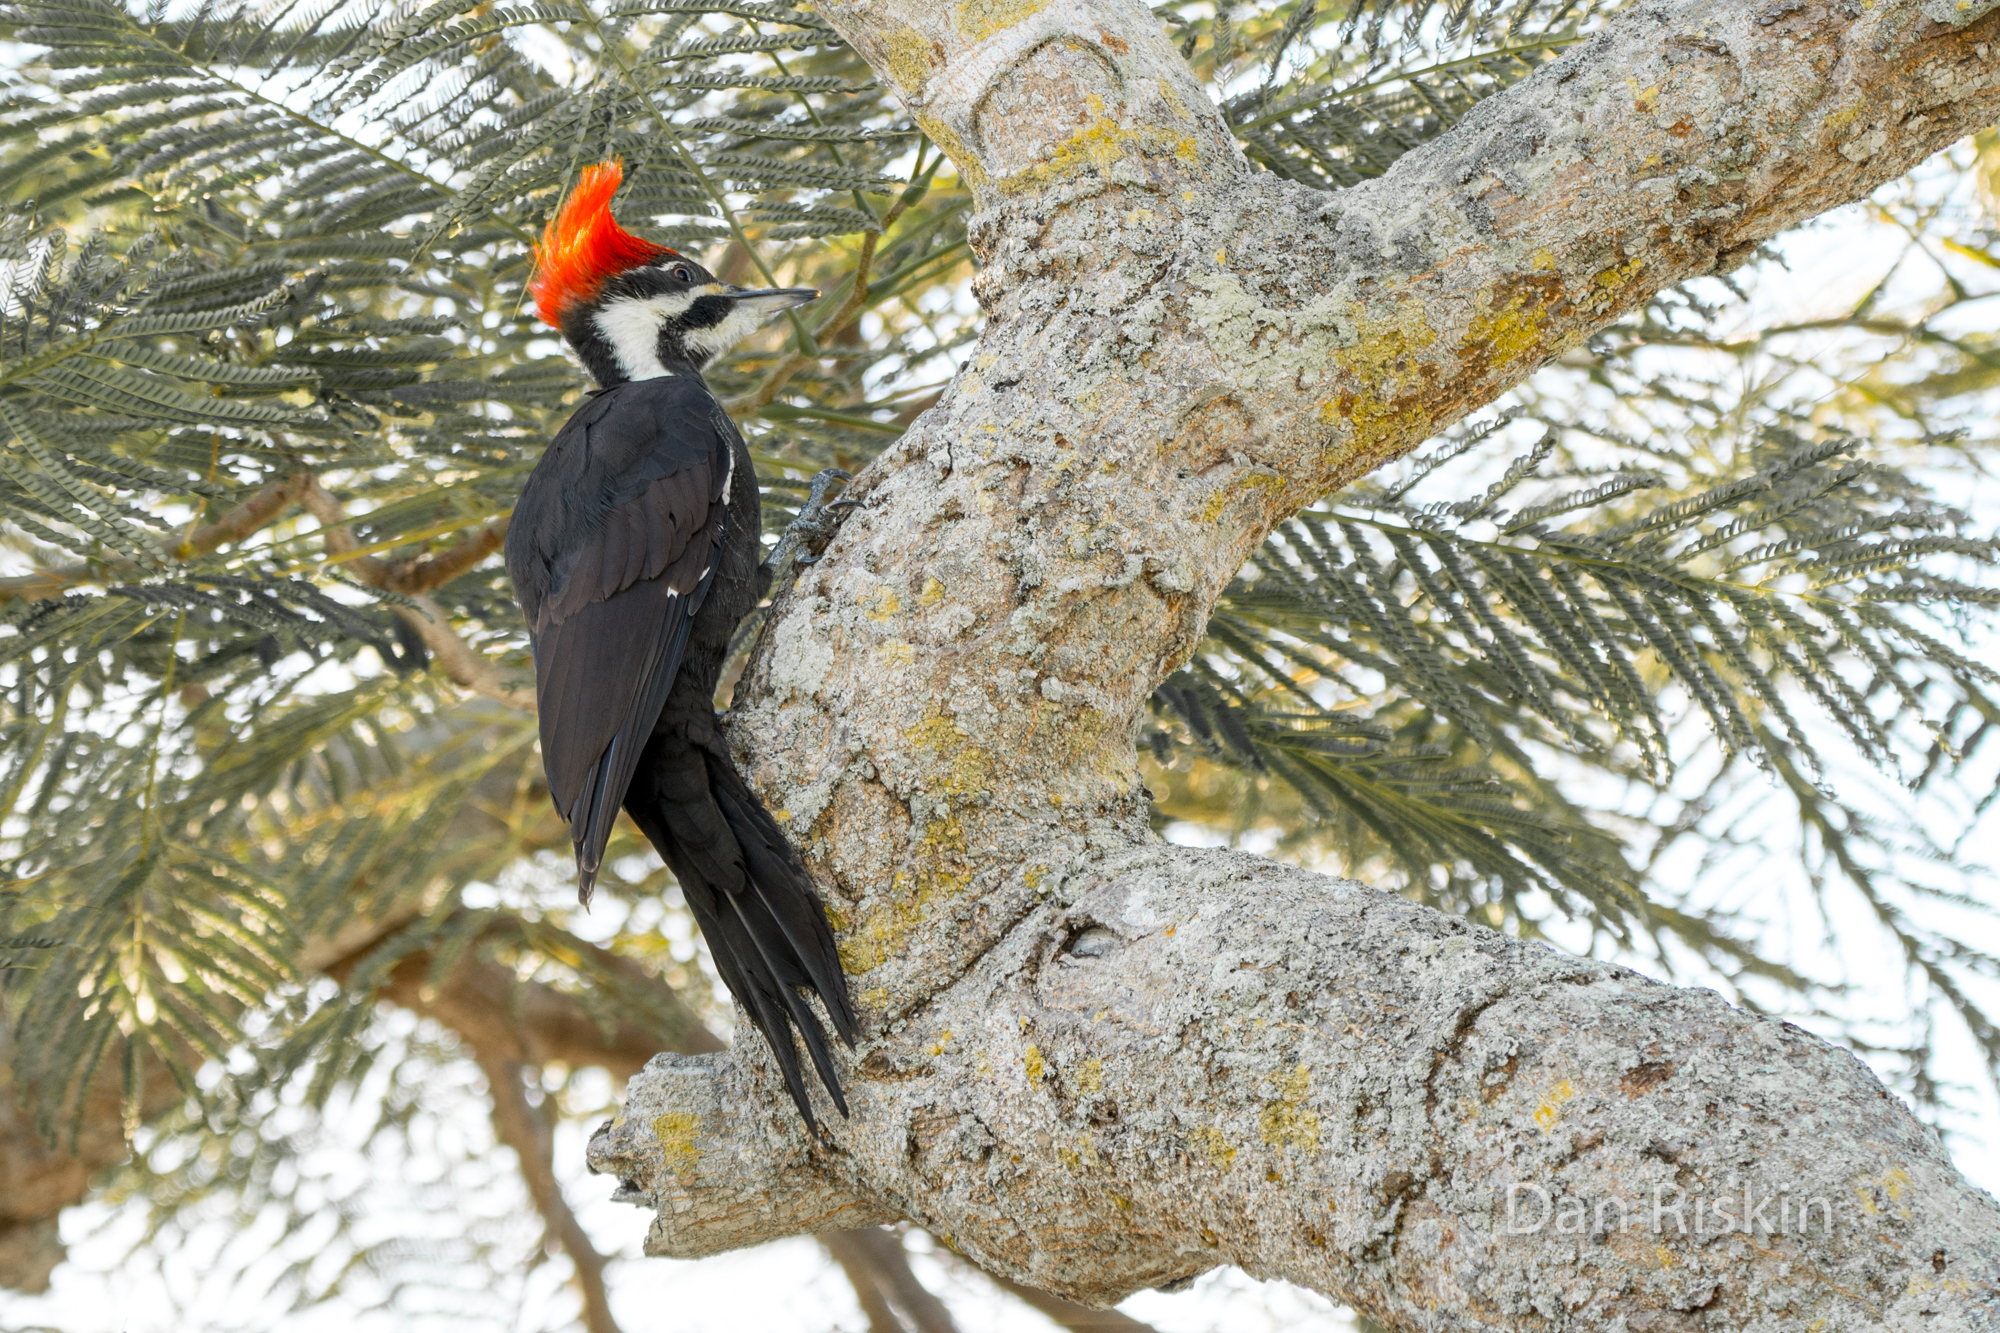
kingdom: Animalia
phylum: Chordata
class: Aves
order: Piciformes
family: Picidae
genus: Dryocopus
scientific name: Dryocopus pileatus
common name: Pileated woodpecker
